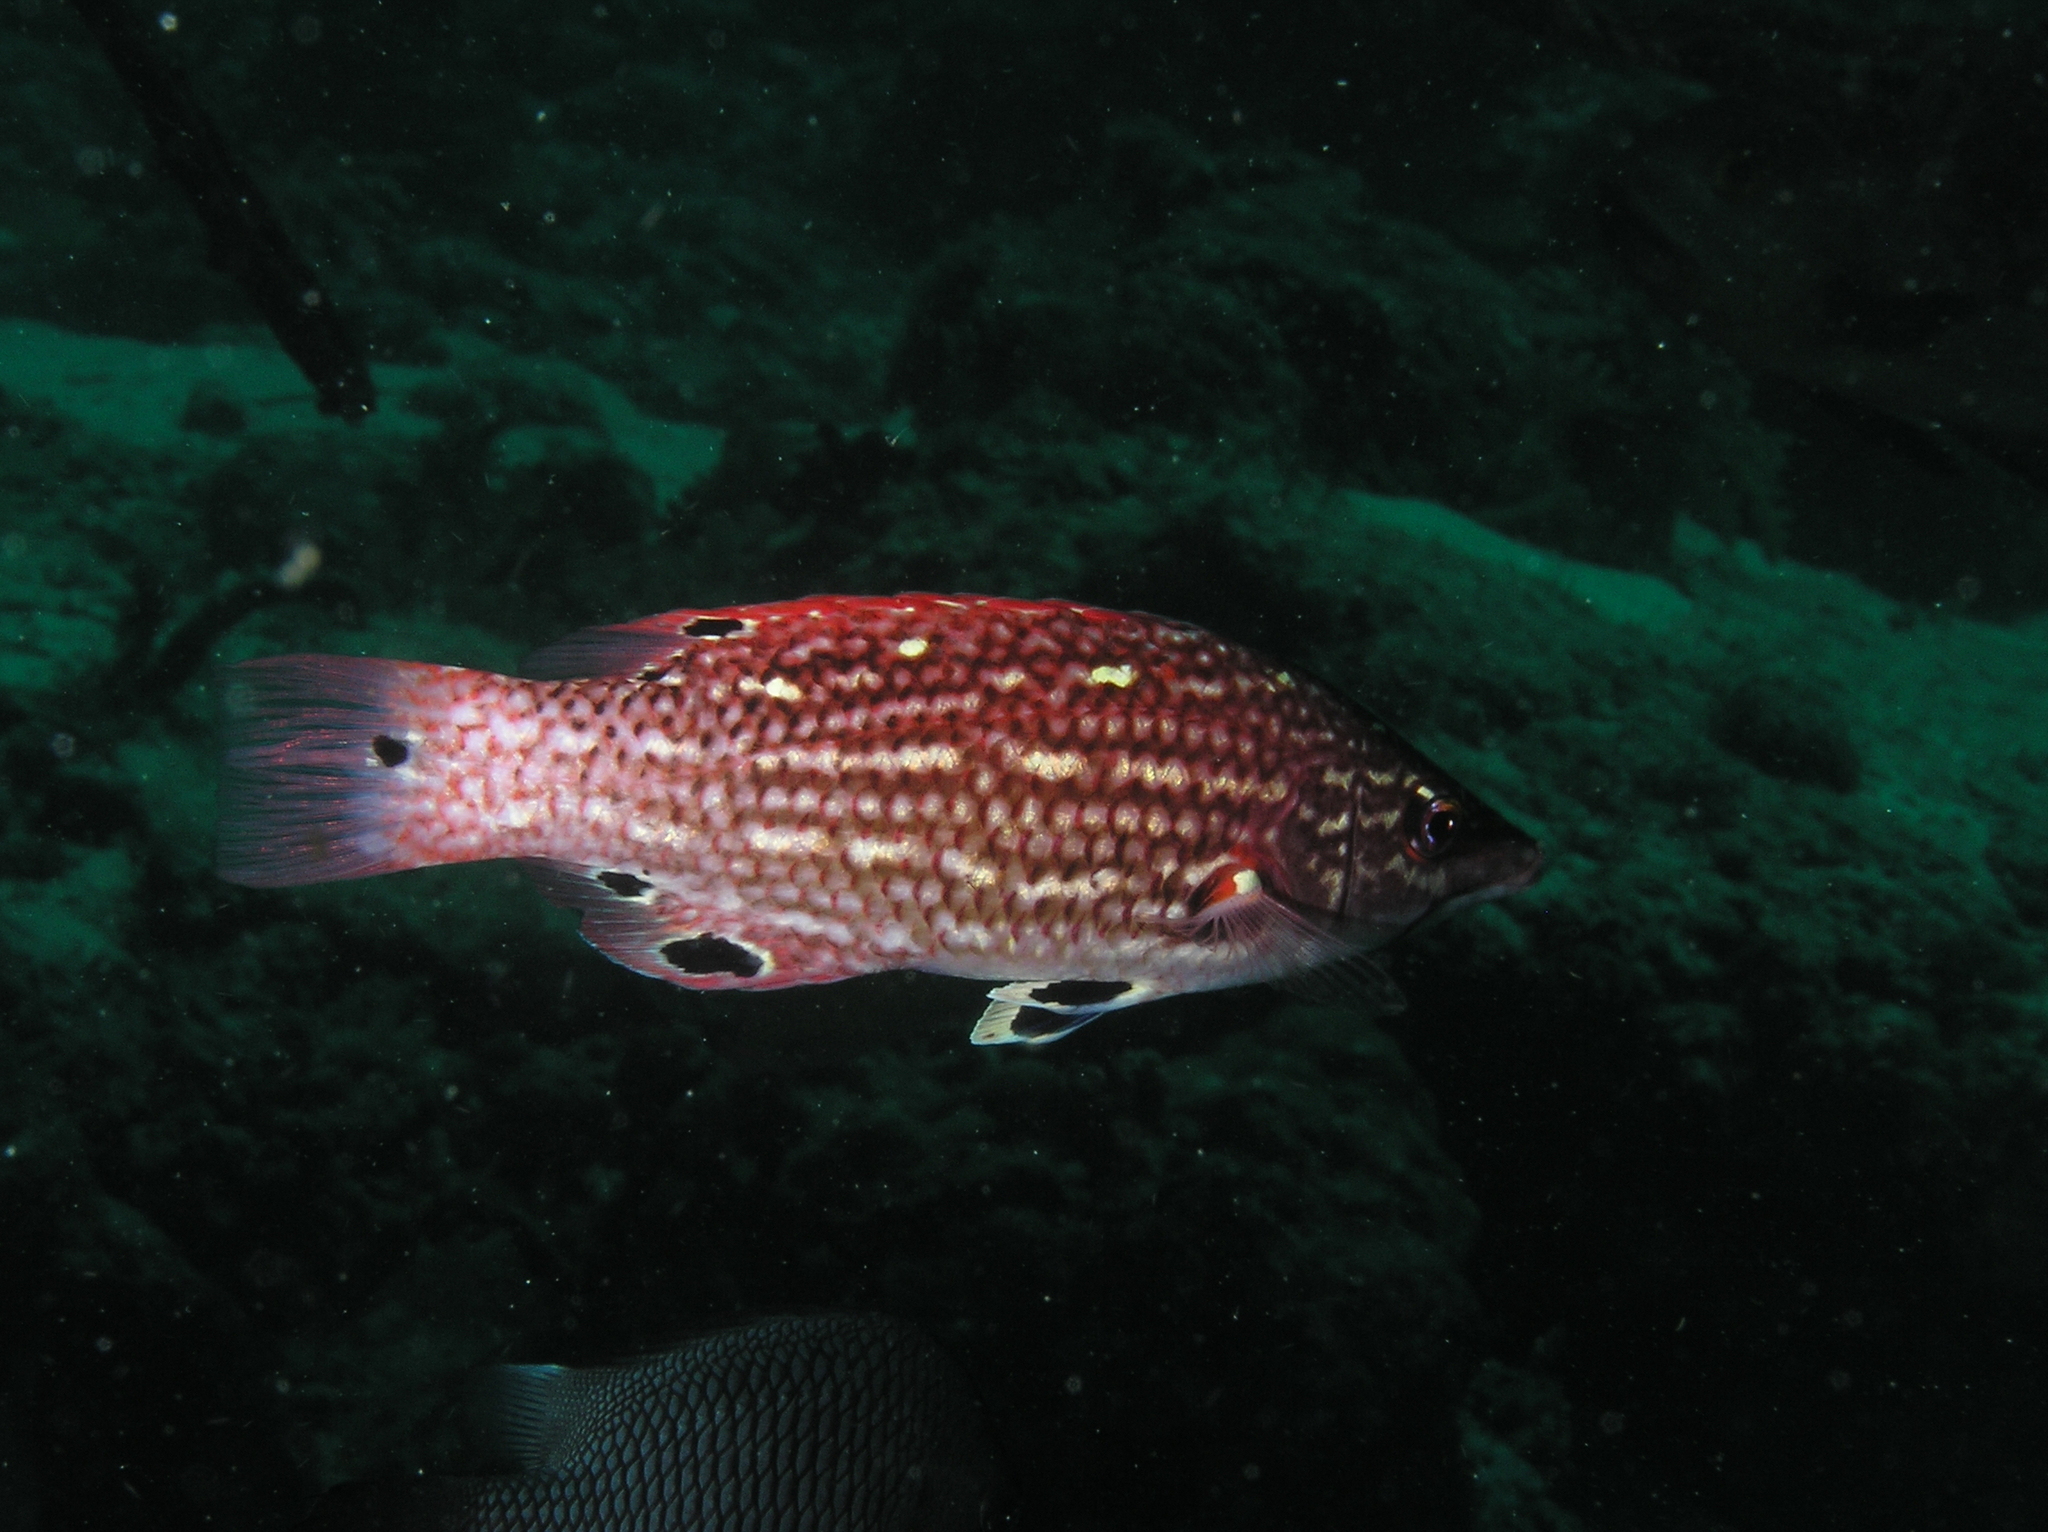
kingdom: Animalia
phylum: Chordata
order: Perciformes
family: Labridae
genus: Bodianus
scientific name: Bodianus dictynna
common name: Diana's hogfish
